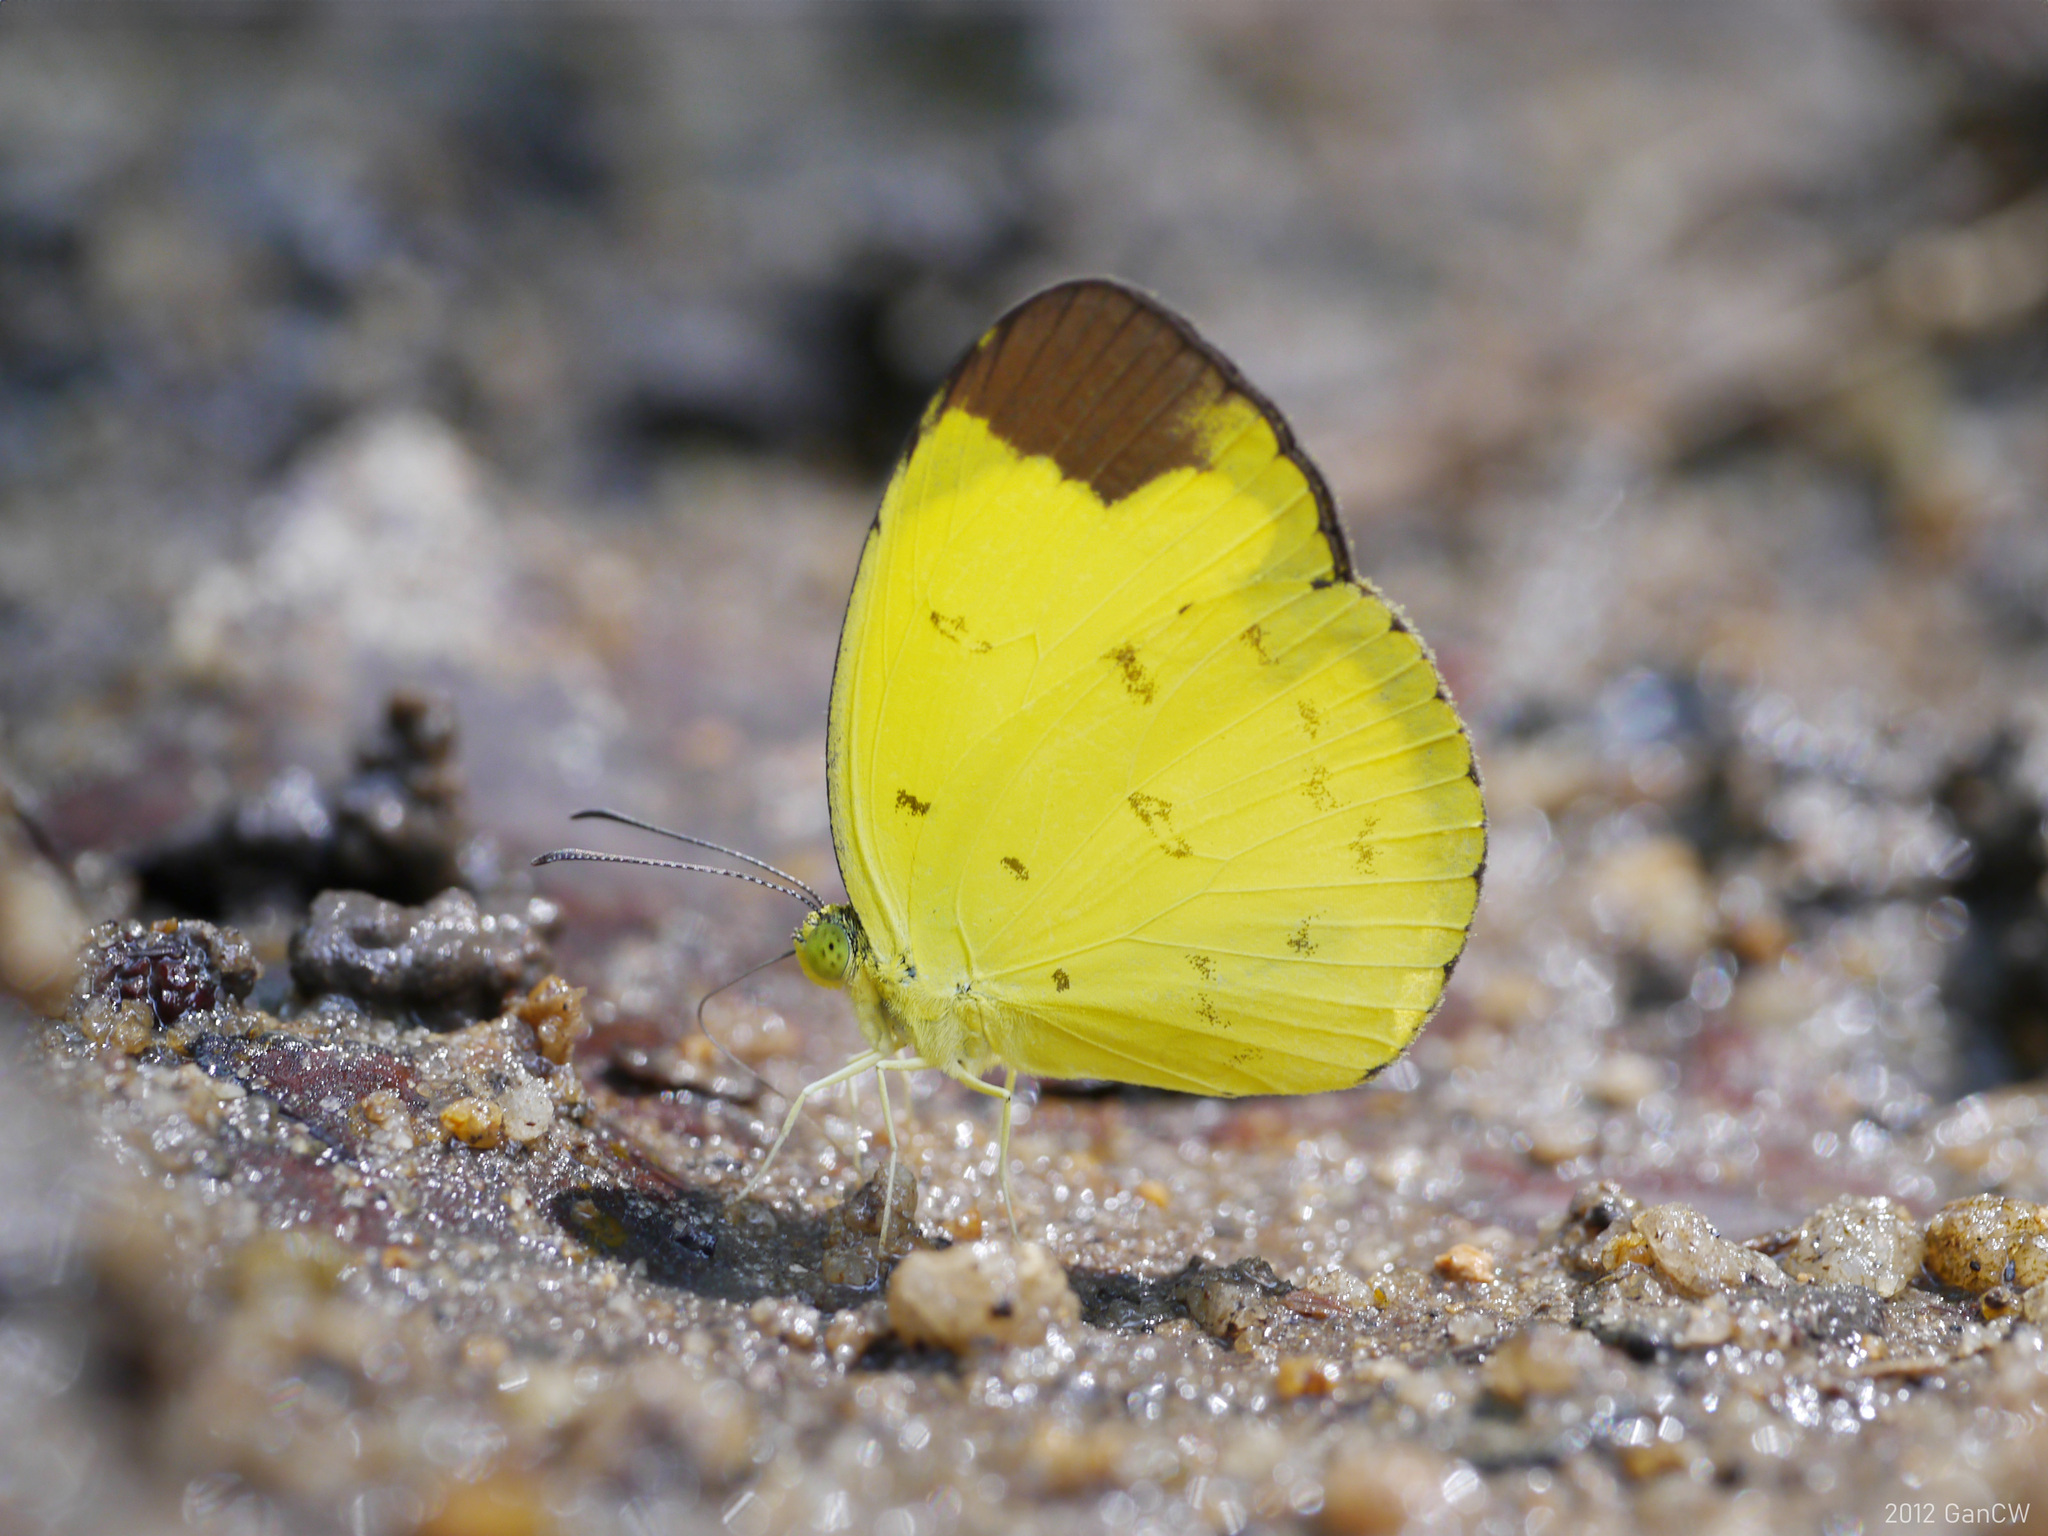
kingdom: Animalia
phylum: Arthropoda
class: Insecta
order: Lepidoptera
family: Pieridae
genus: Eurema
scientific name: Eurema sari
